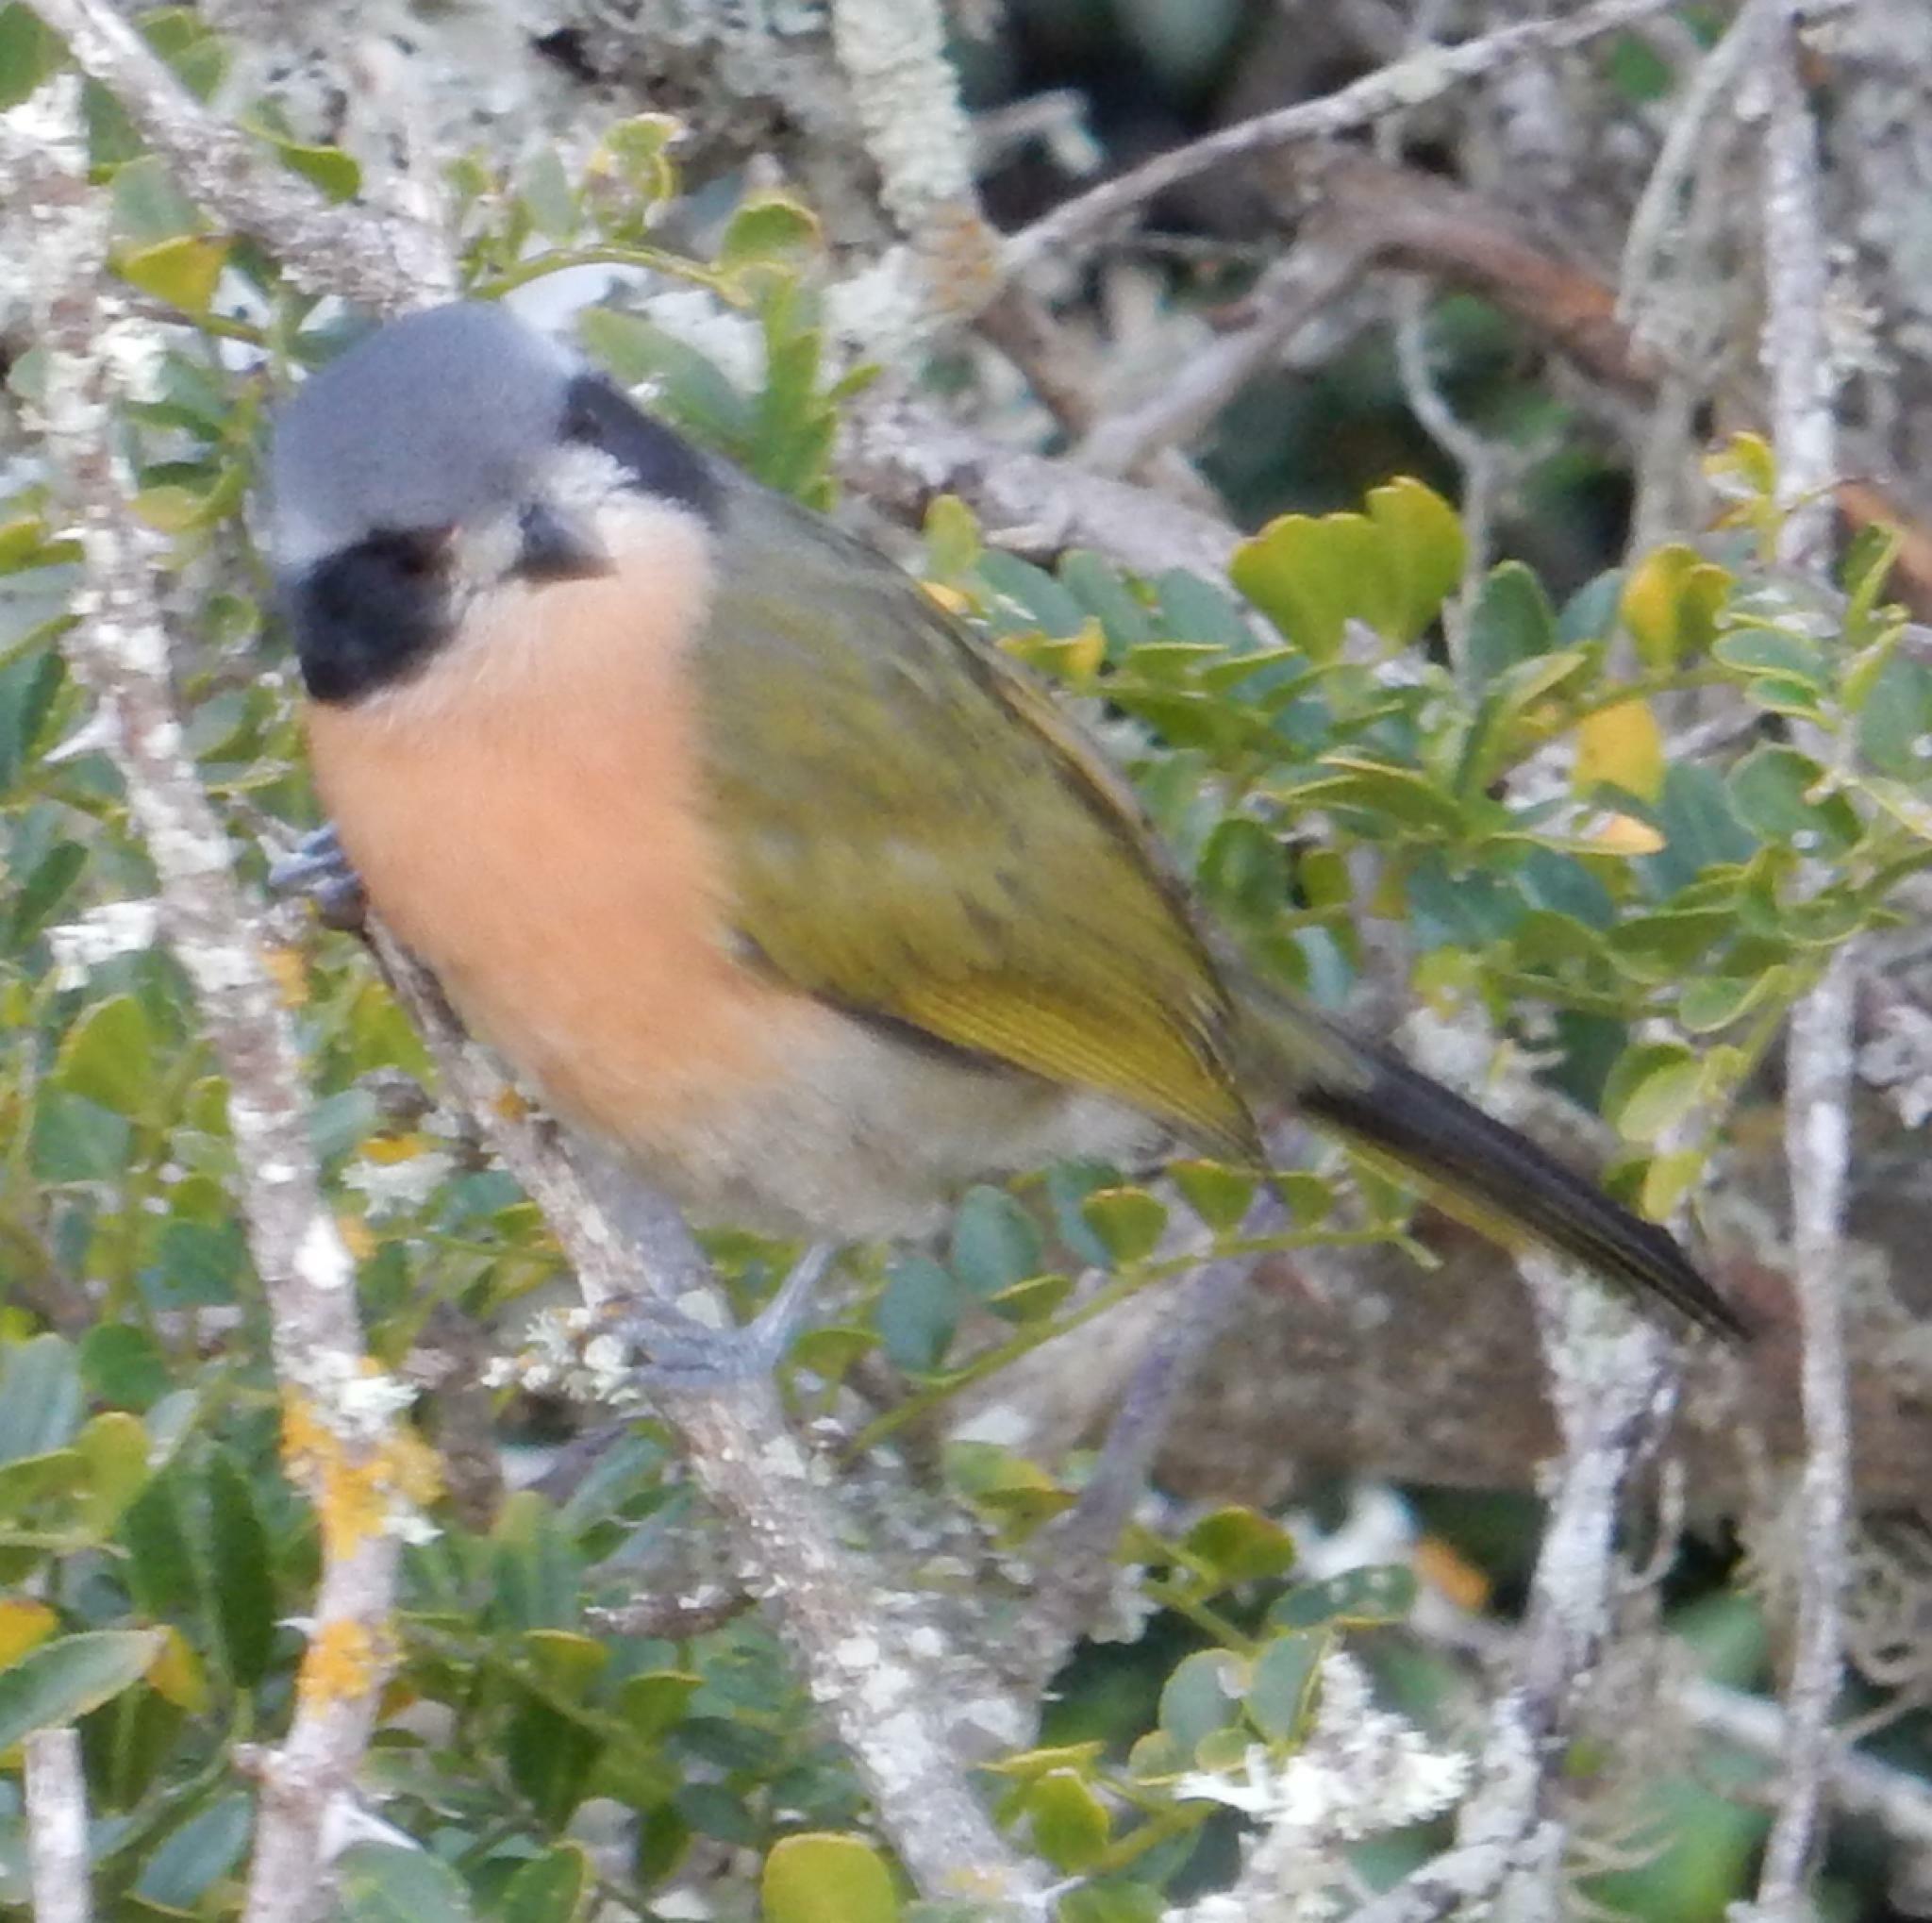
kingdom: Animalia
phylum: Chordata
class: Aves
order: Passeriformes
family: Malaconotidae
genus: Chlorophoneus
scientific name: Chlorophoneus olivaceus
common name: Olive bushshrike
